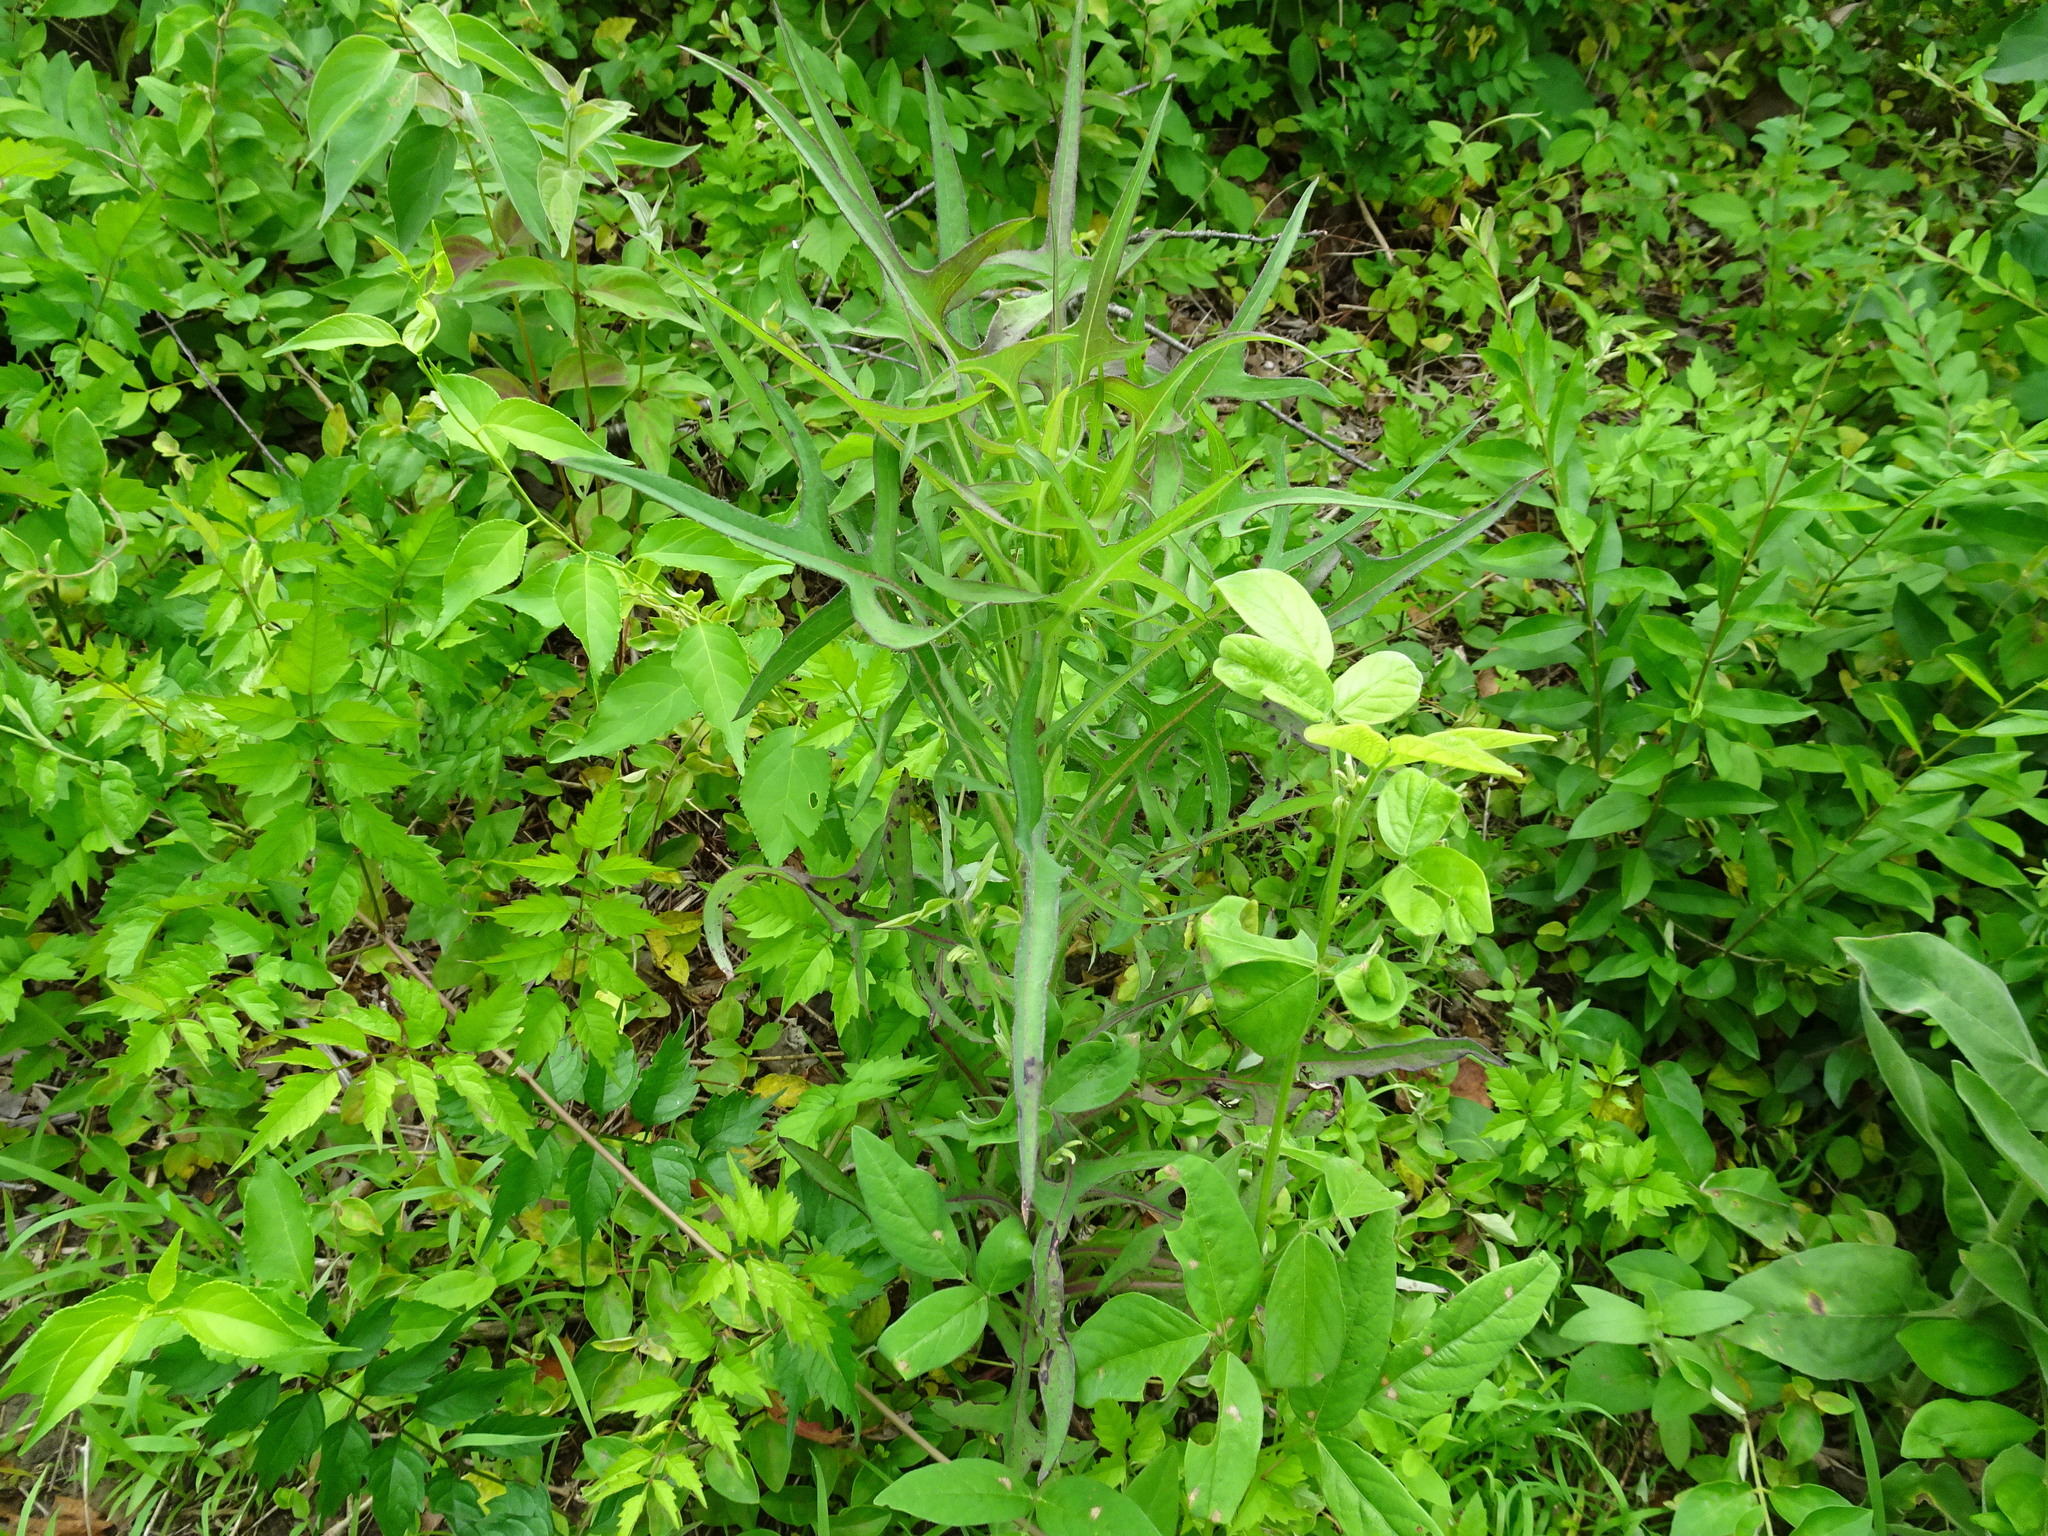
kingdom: Plantae
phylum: Tracheophyta
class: Magnoliopsida
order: Asterales
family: Asteraceae
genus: Lactuca
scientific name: Lactuca canadensis
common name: Canada lettuce
